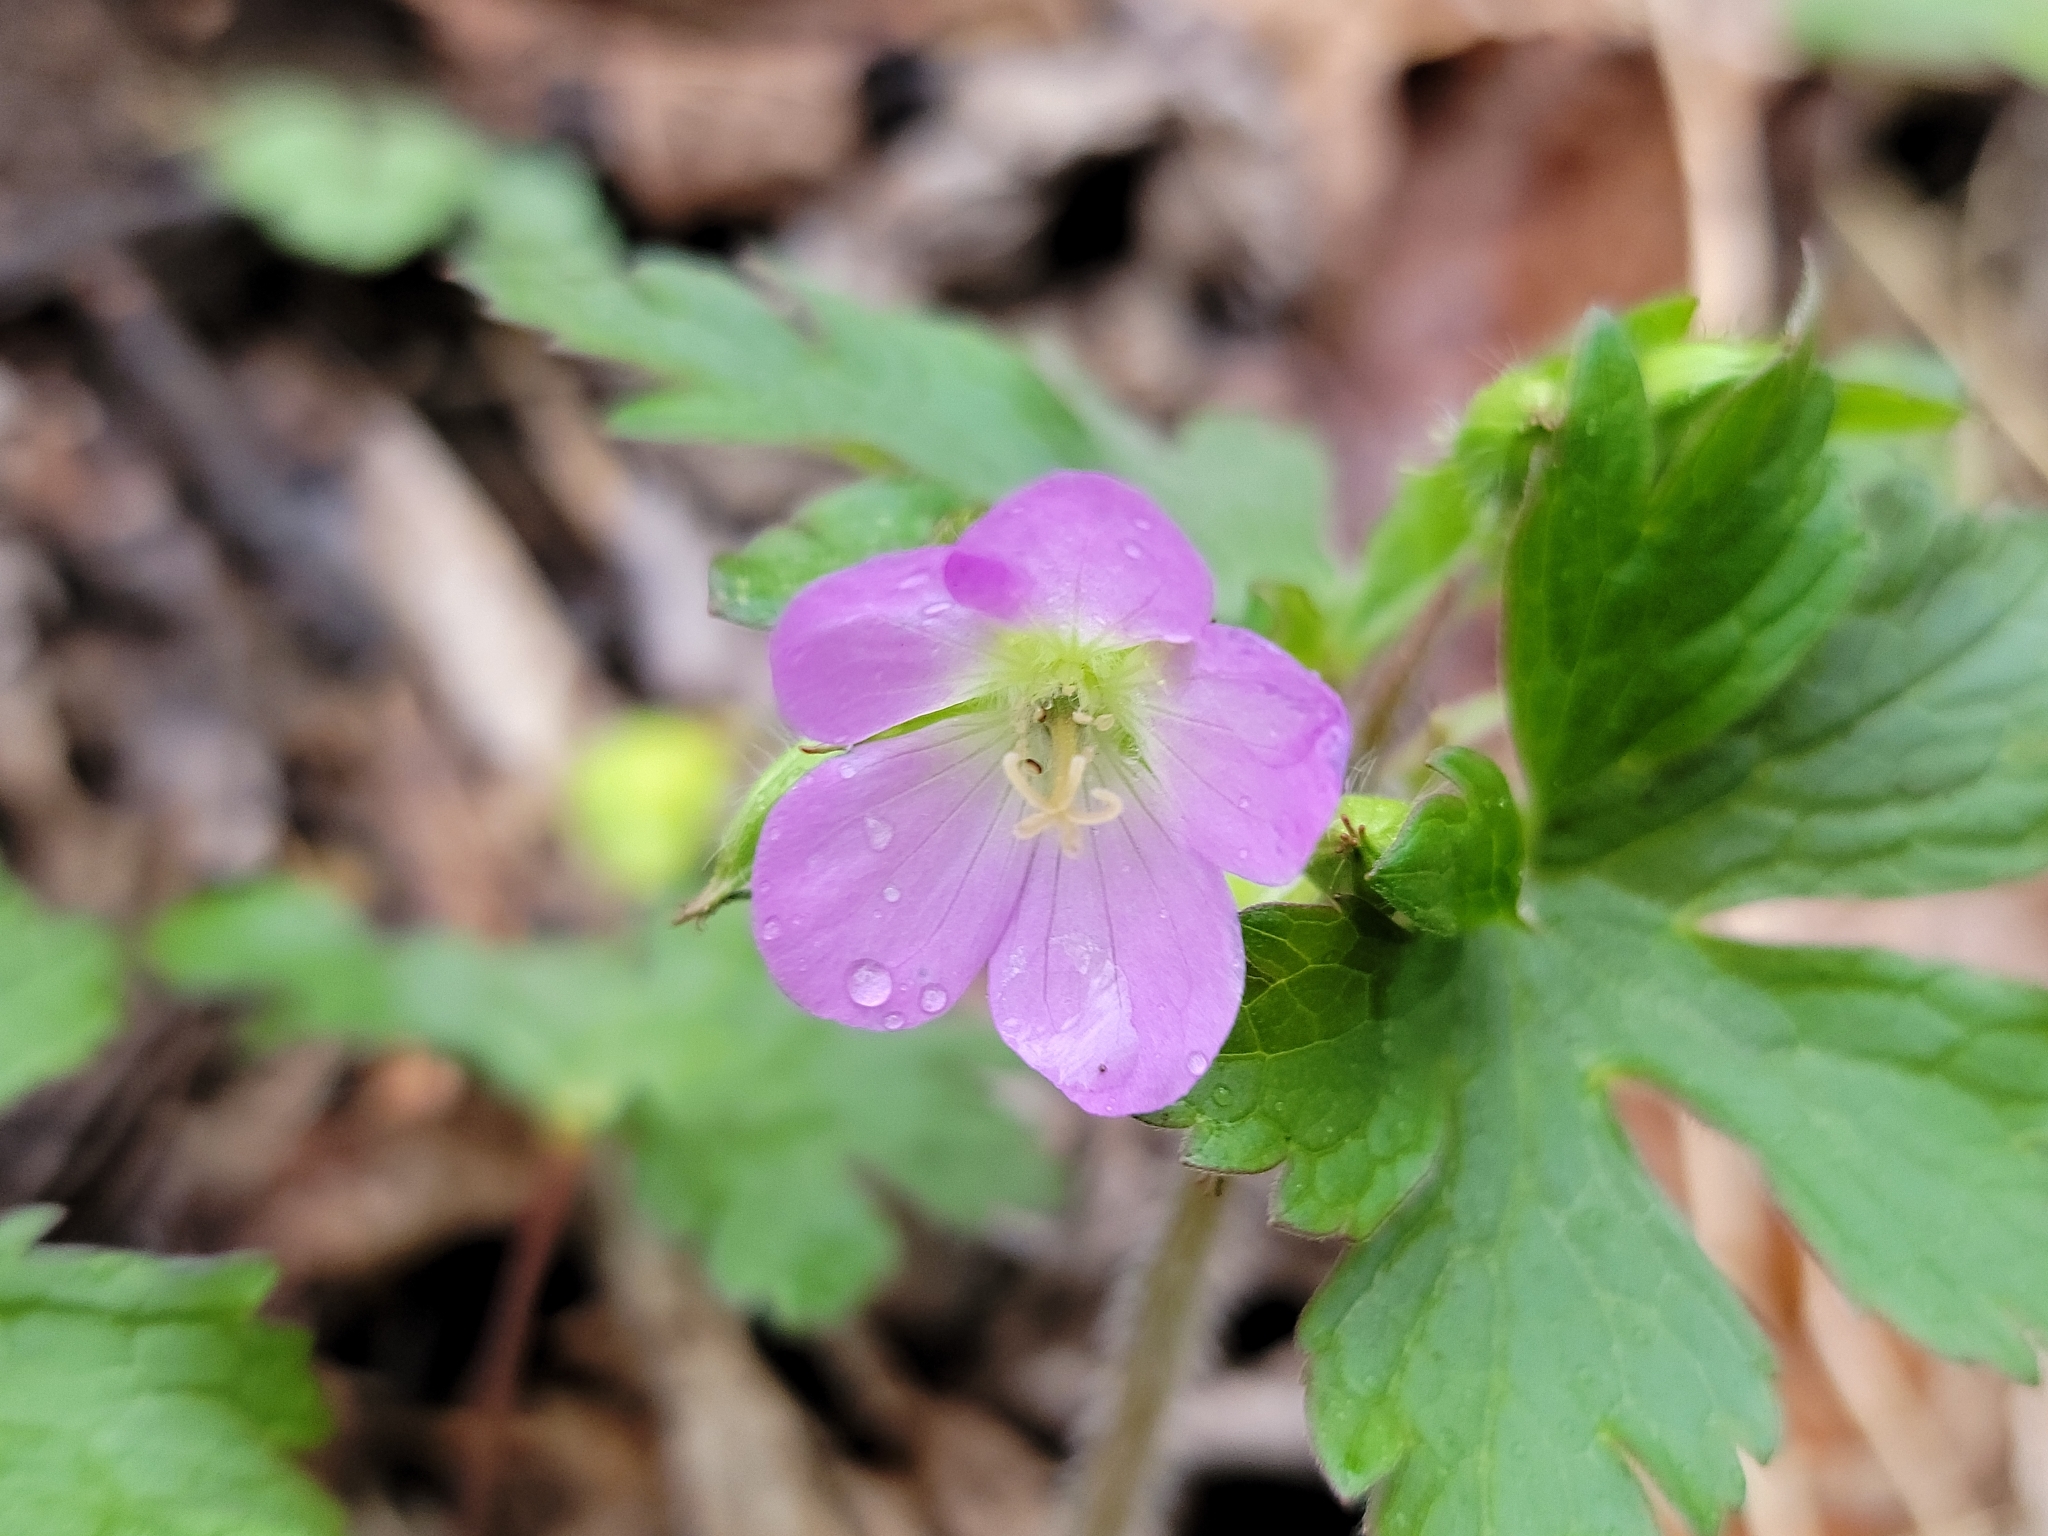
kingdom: Plantae
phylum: Tracheophyta
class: Magnoliopsida
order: Geraniales
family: Geraniaceae
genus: Geranium
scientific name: Geranium maculatum
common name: Spotted geranium
